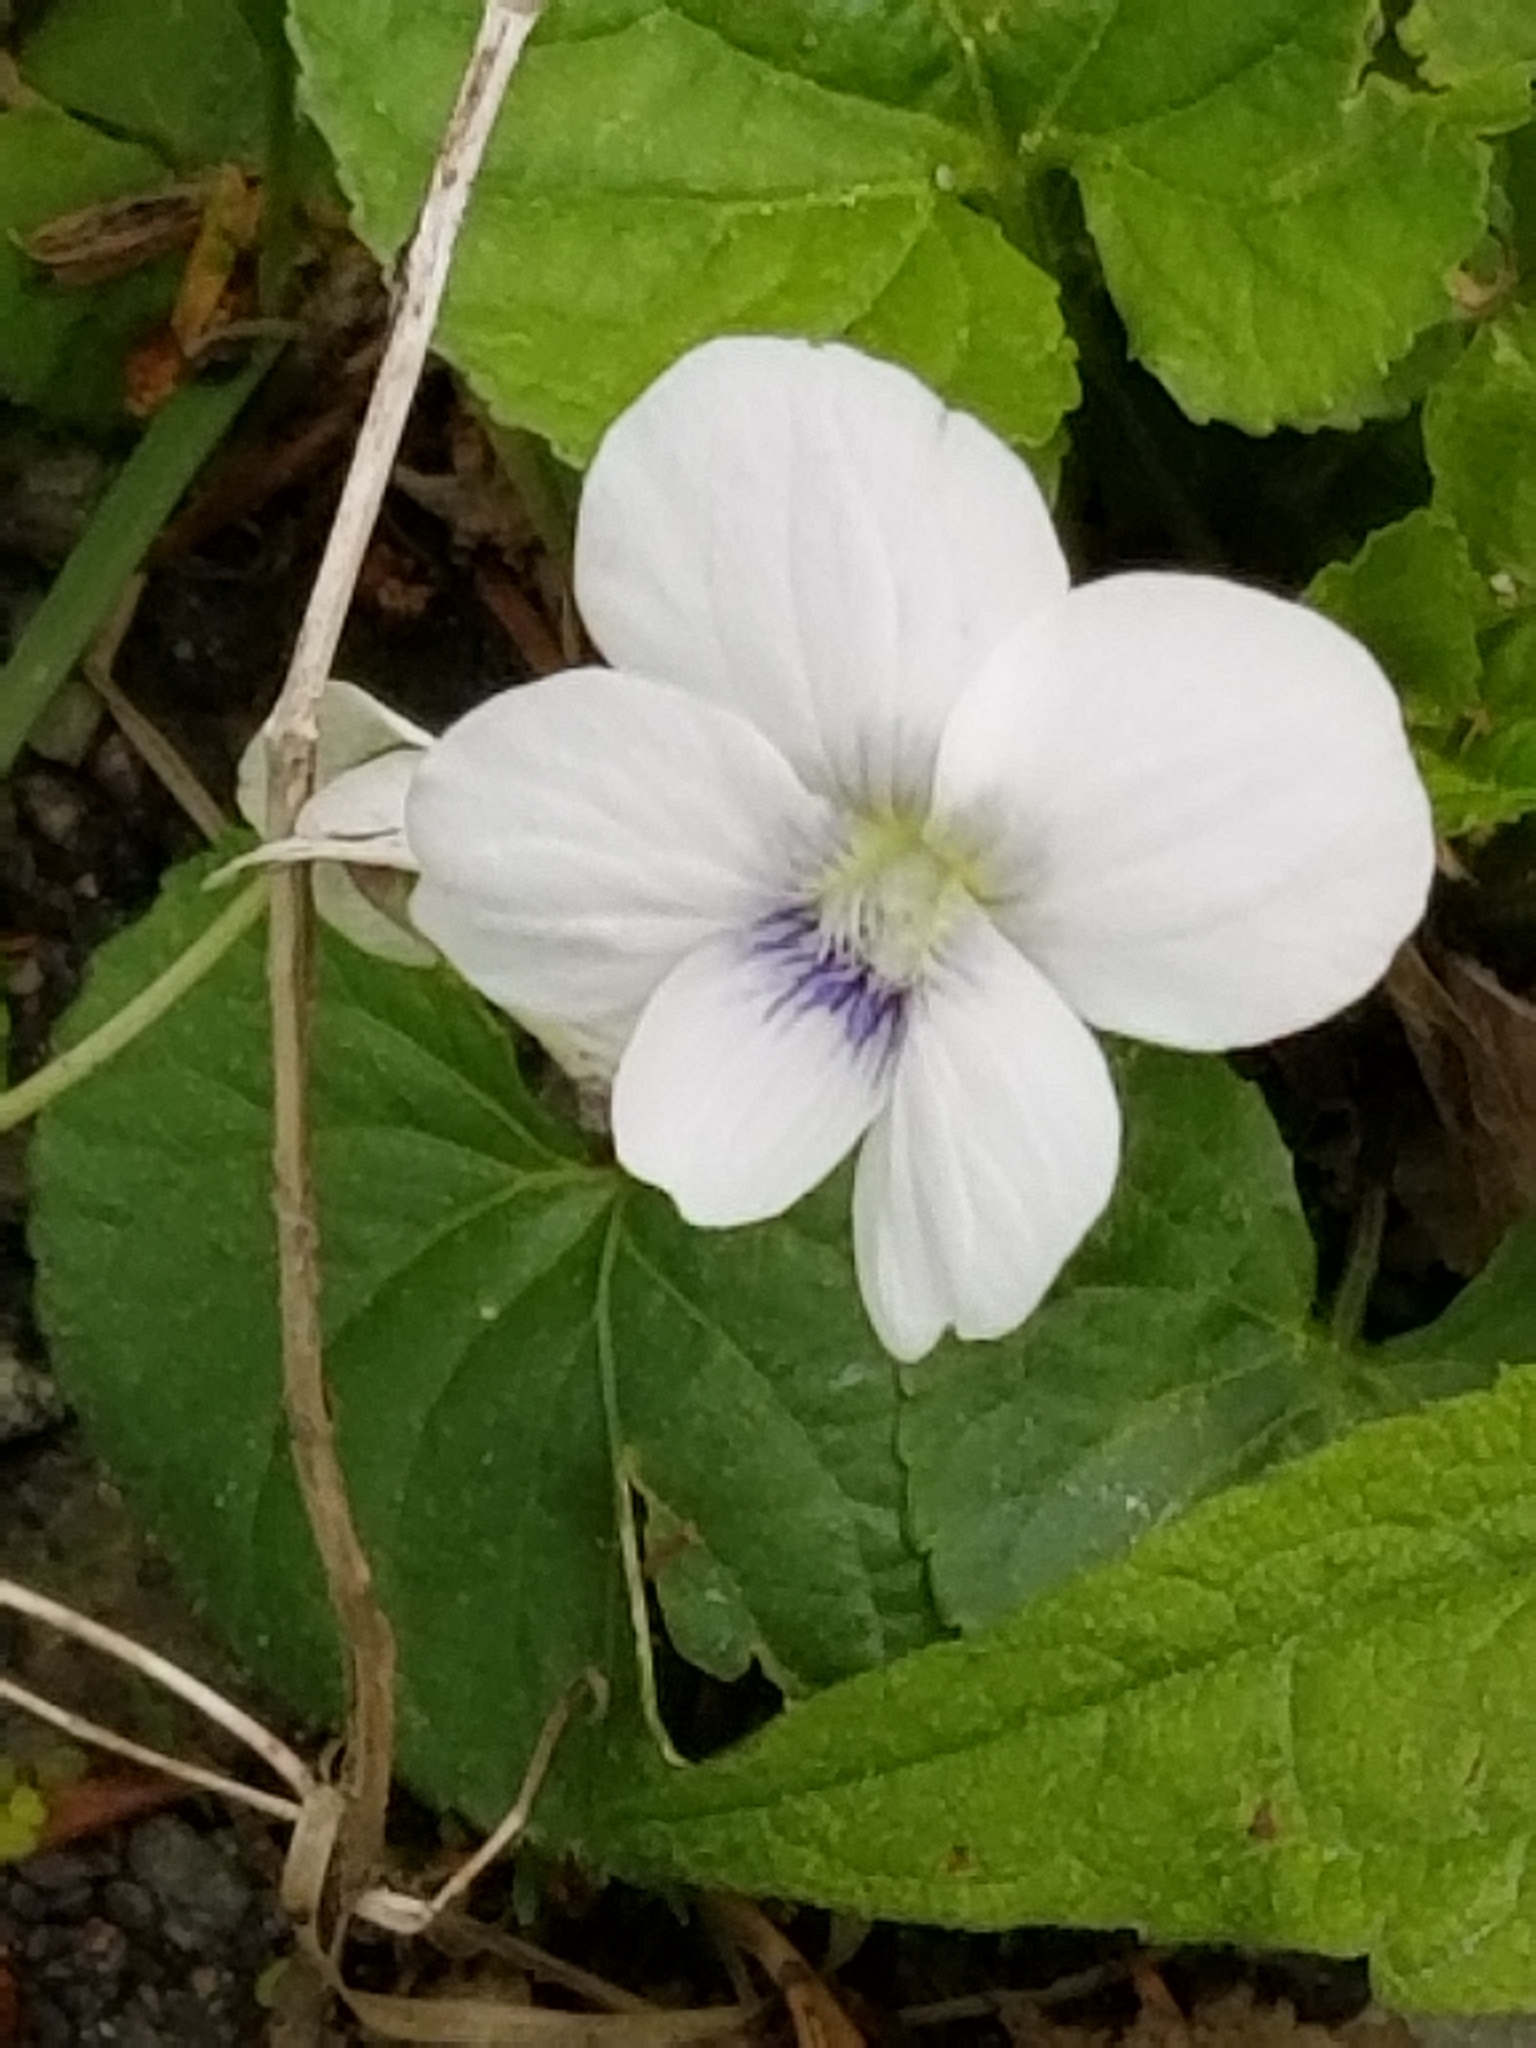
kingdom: Plantae
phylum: Tracheophyta
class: Magnoliopsida
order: Malpighiales
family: Violaceae
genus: Viola
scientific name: Viola sororia
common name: Dooryard violet
